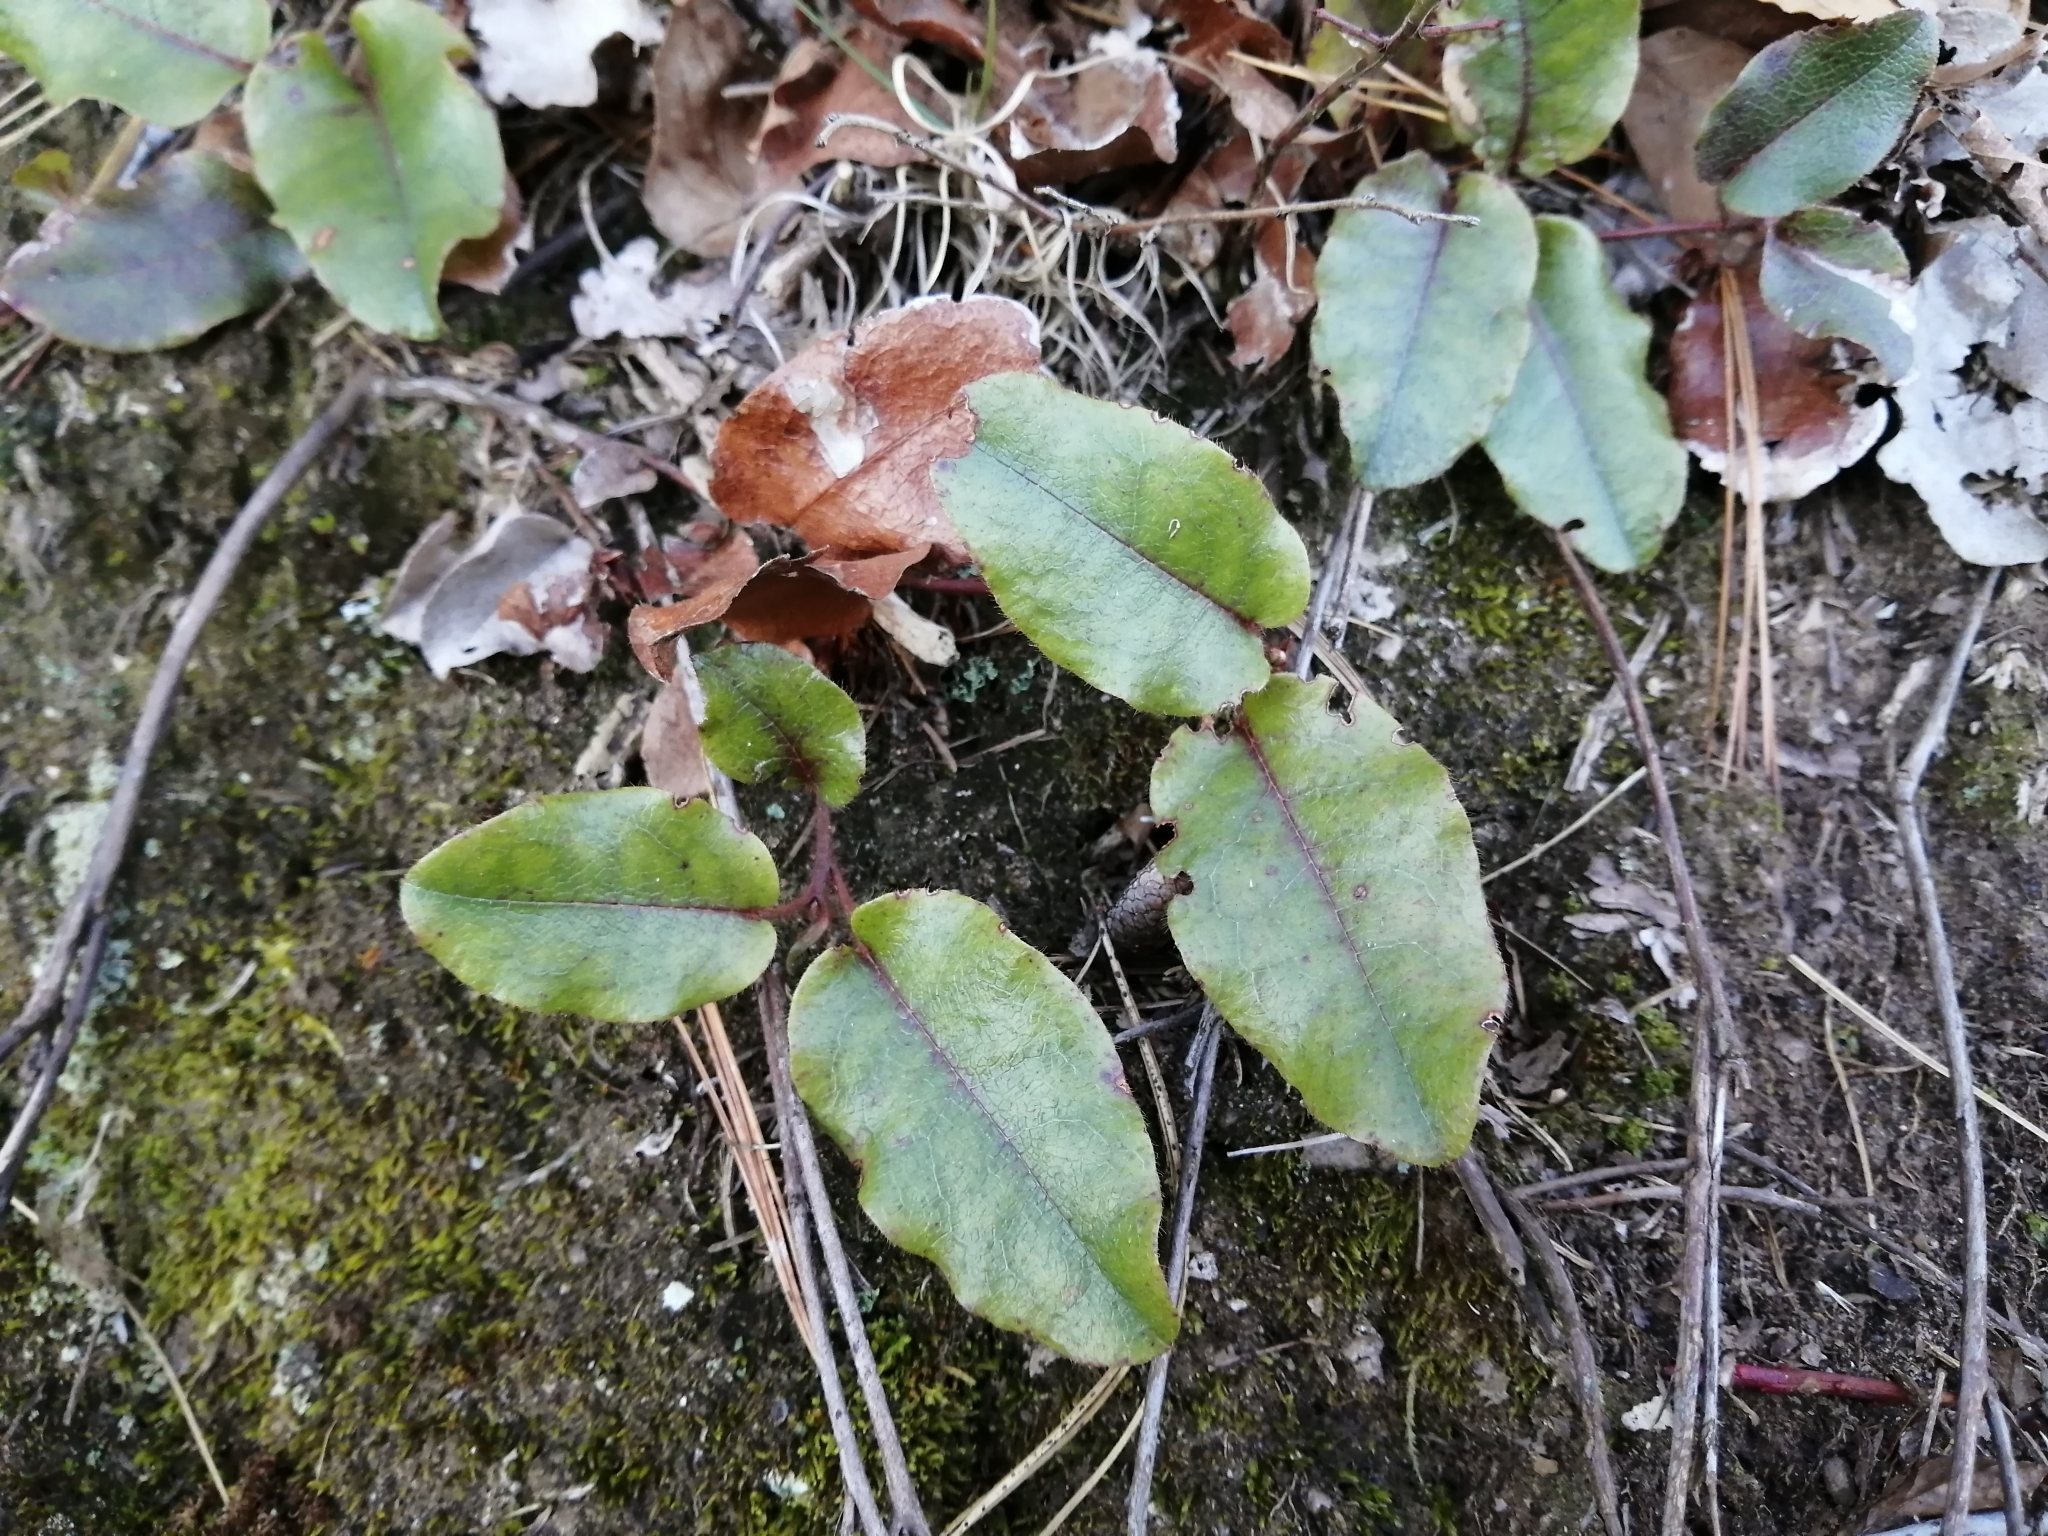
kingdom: Plantae
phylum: Tracheophyta
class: Magnoliopsida
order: Ericales
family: Ericaceae
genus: Epigaea
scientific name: Epigaea repens
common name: Gravelroot
